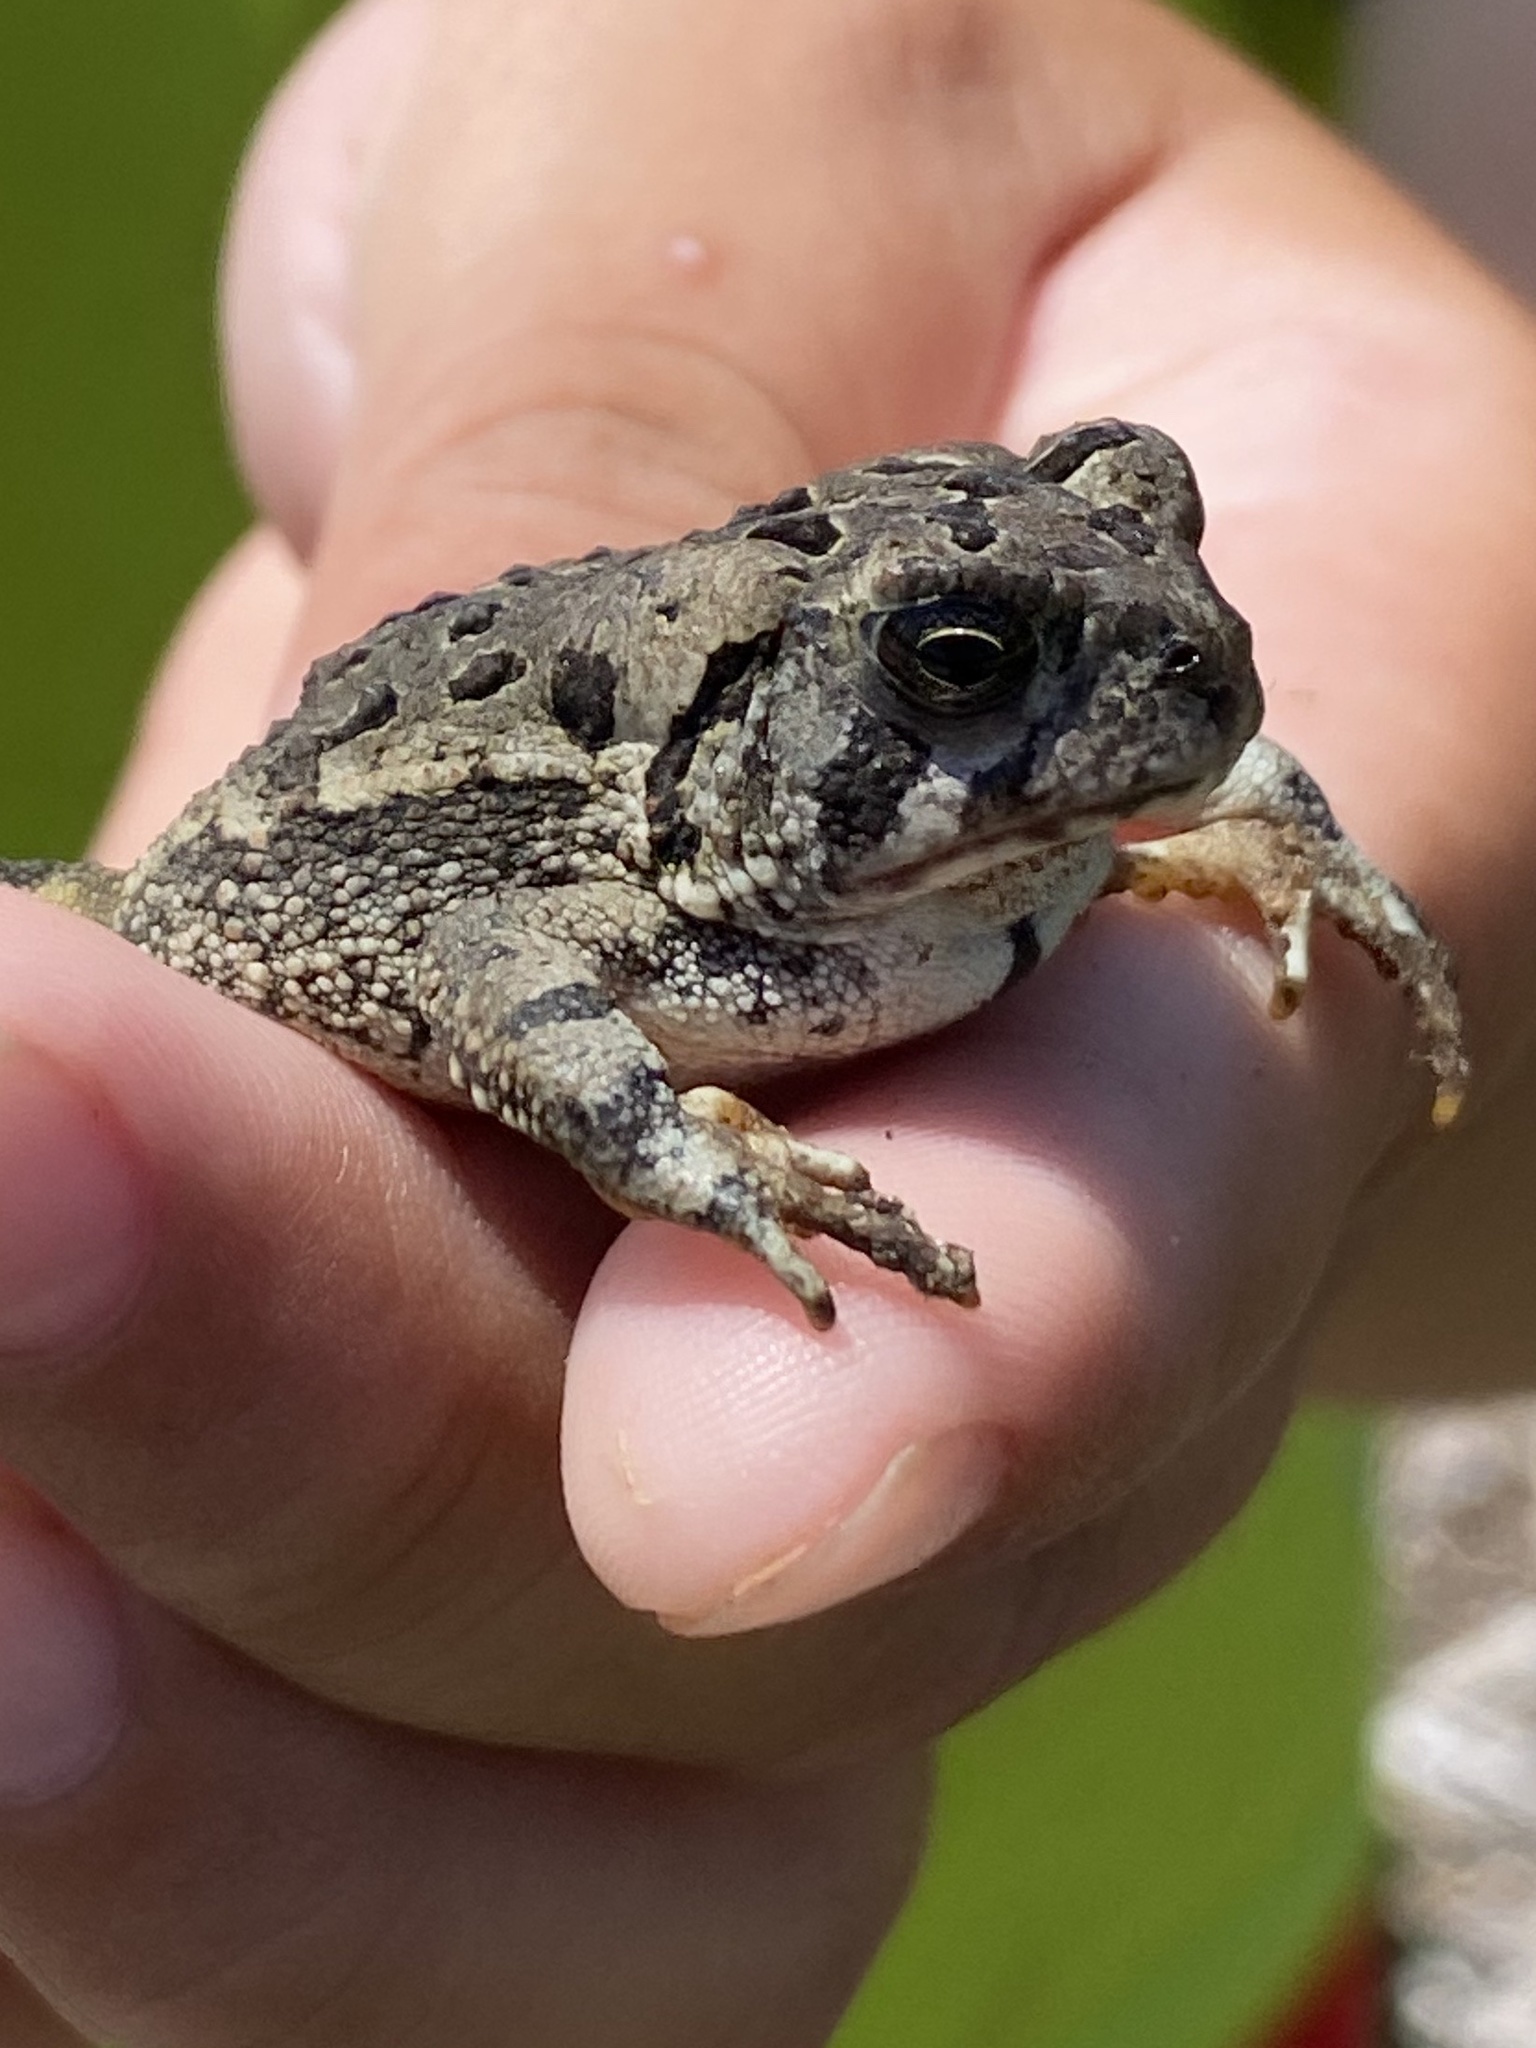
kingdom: Animalia
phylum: Chordata
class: Amphibia
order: Anura
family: Bufonidae
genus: Anaxyrus
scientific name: Anaxyrus fowleri
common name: Fowler's toad
